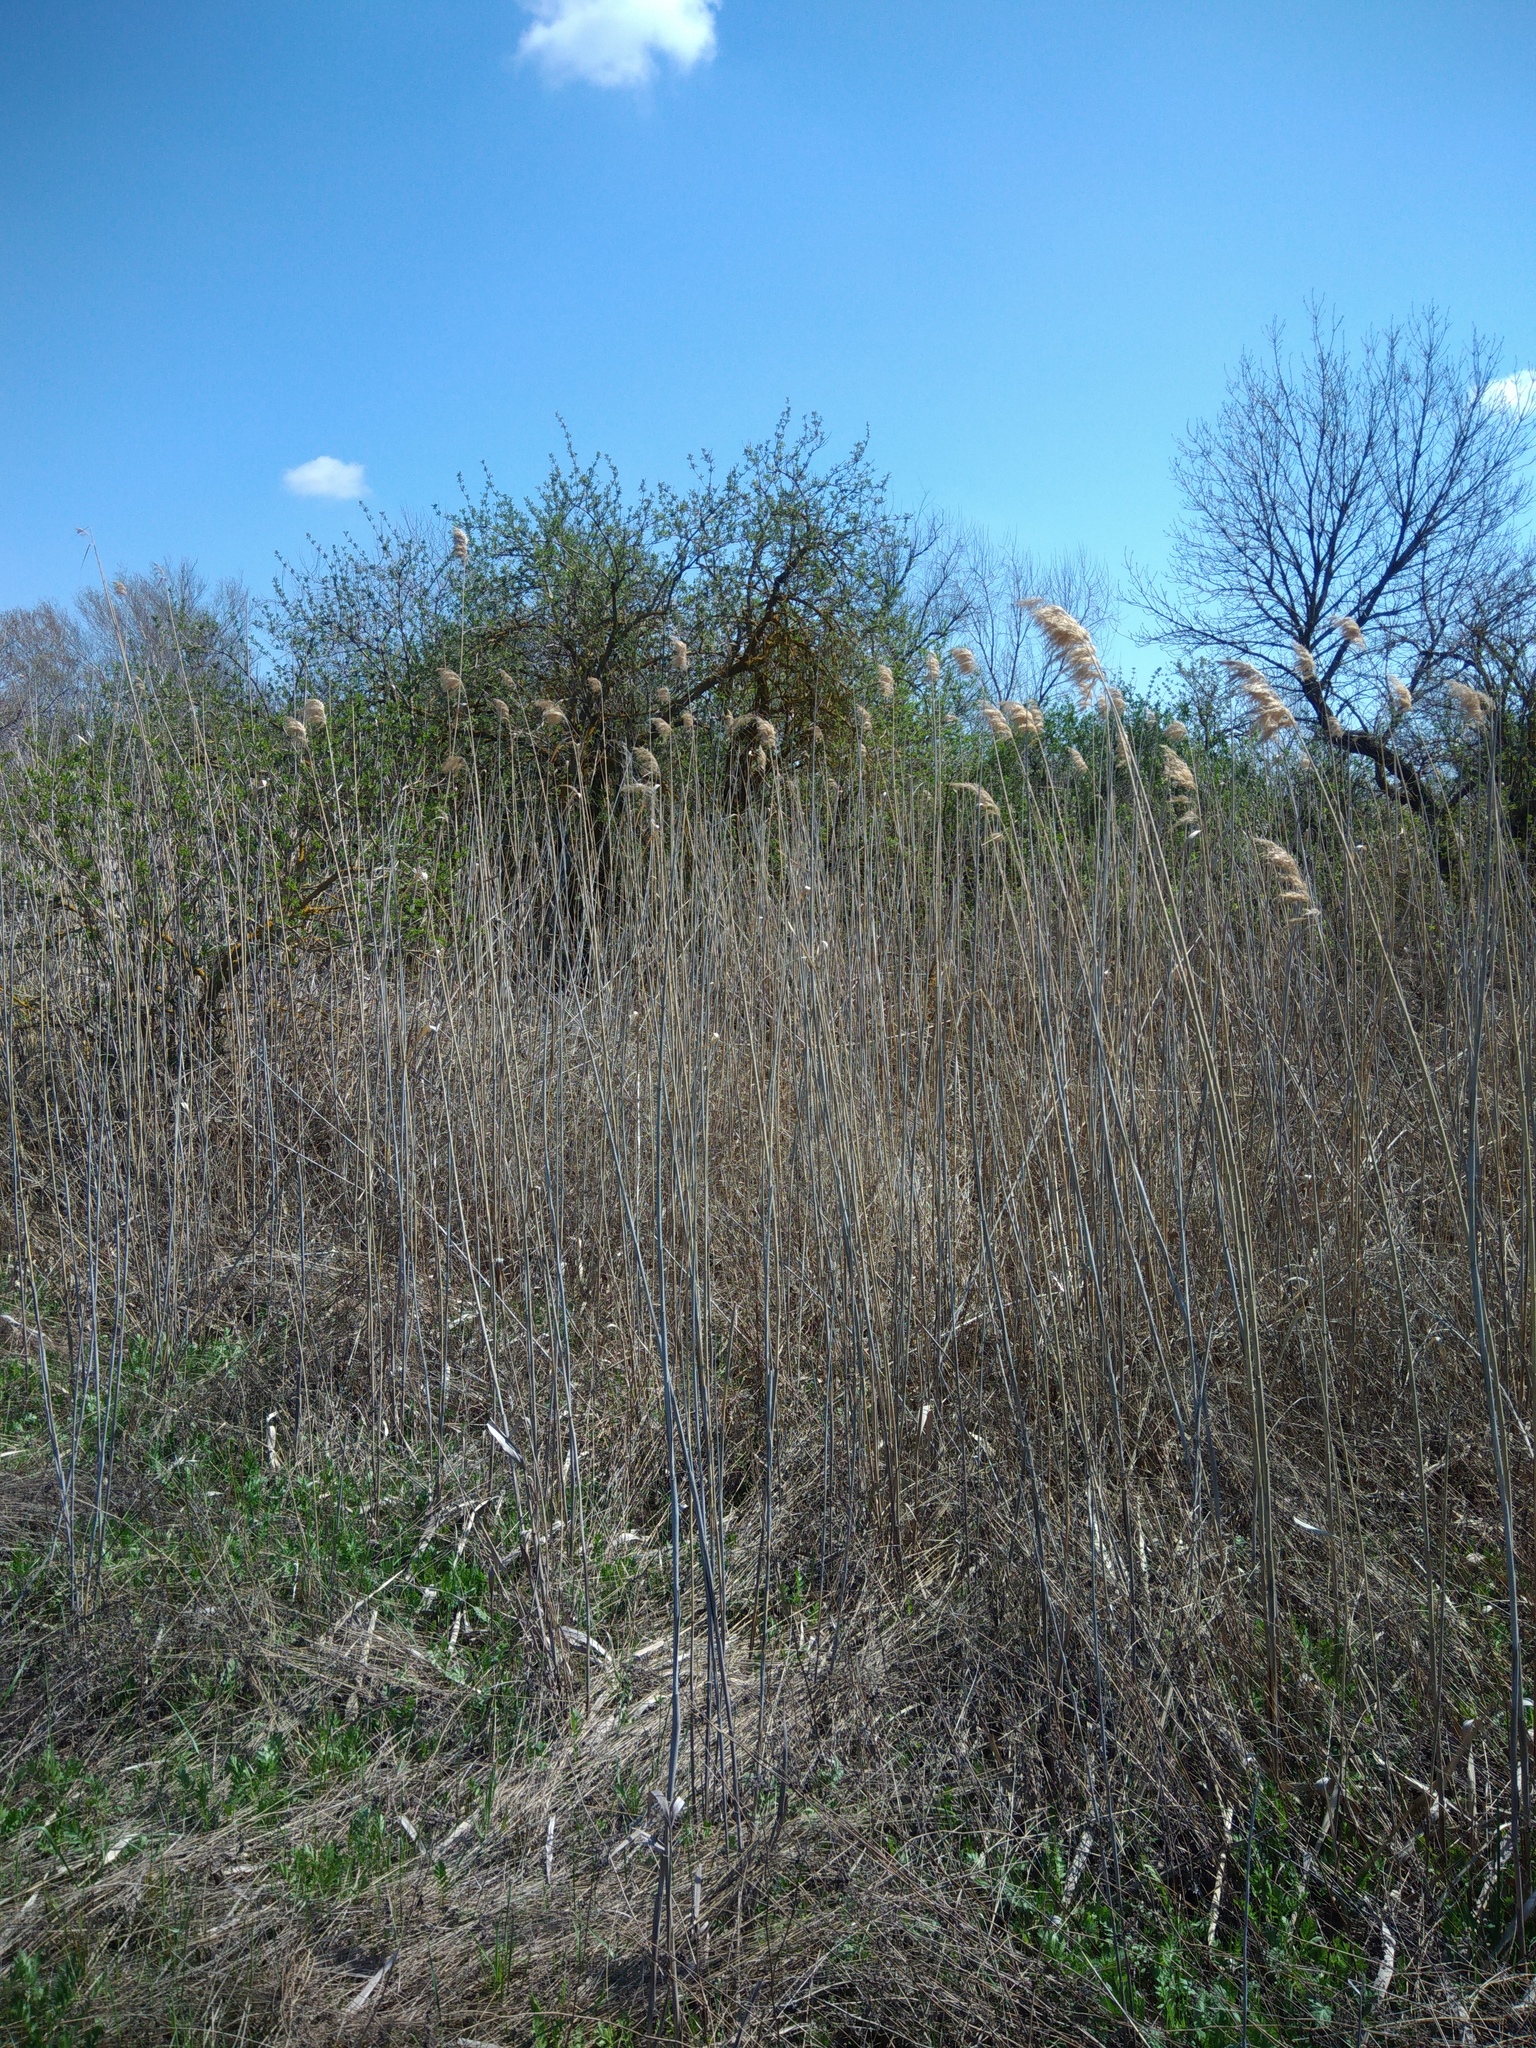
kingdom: Plantae
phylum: Tracheophyta
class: Liliopsida
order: Poales
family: Poaceae
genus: Phragmites
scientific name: Phragmites australis
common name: Common reed
